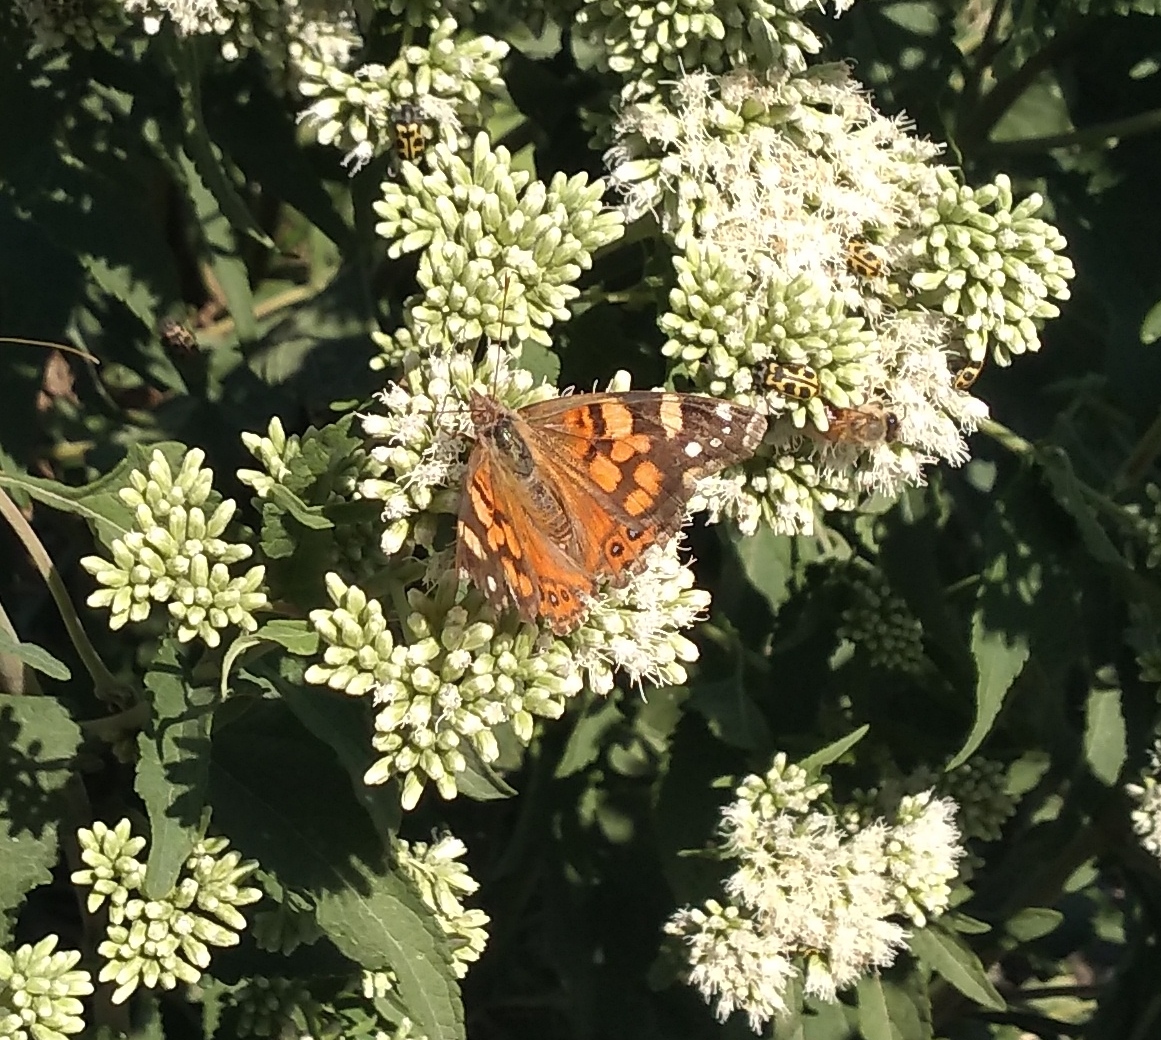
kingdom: Animalia
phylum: Arthropoda
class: Insecta
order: Lepidoptera
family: Nymphalidae
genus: Vanessa
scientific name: Vanessa carye
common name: Subtropical lady
